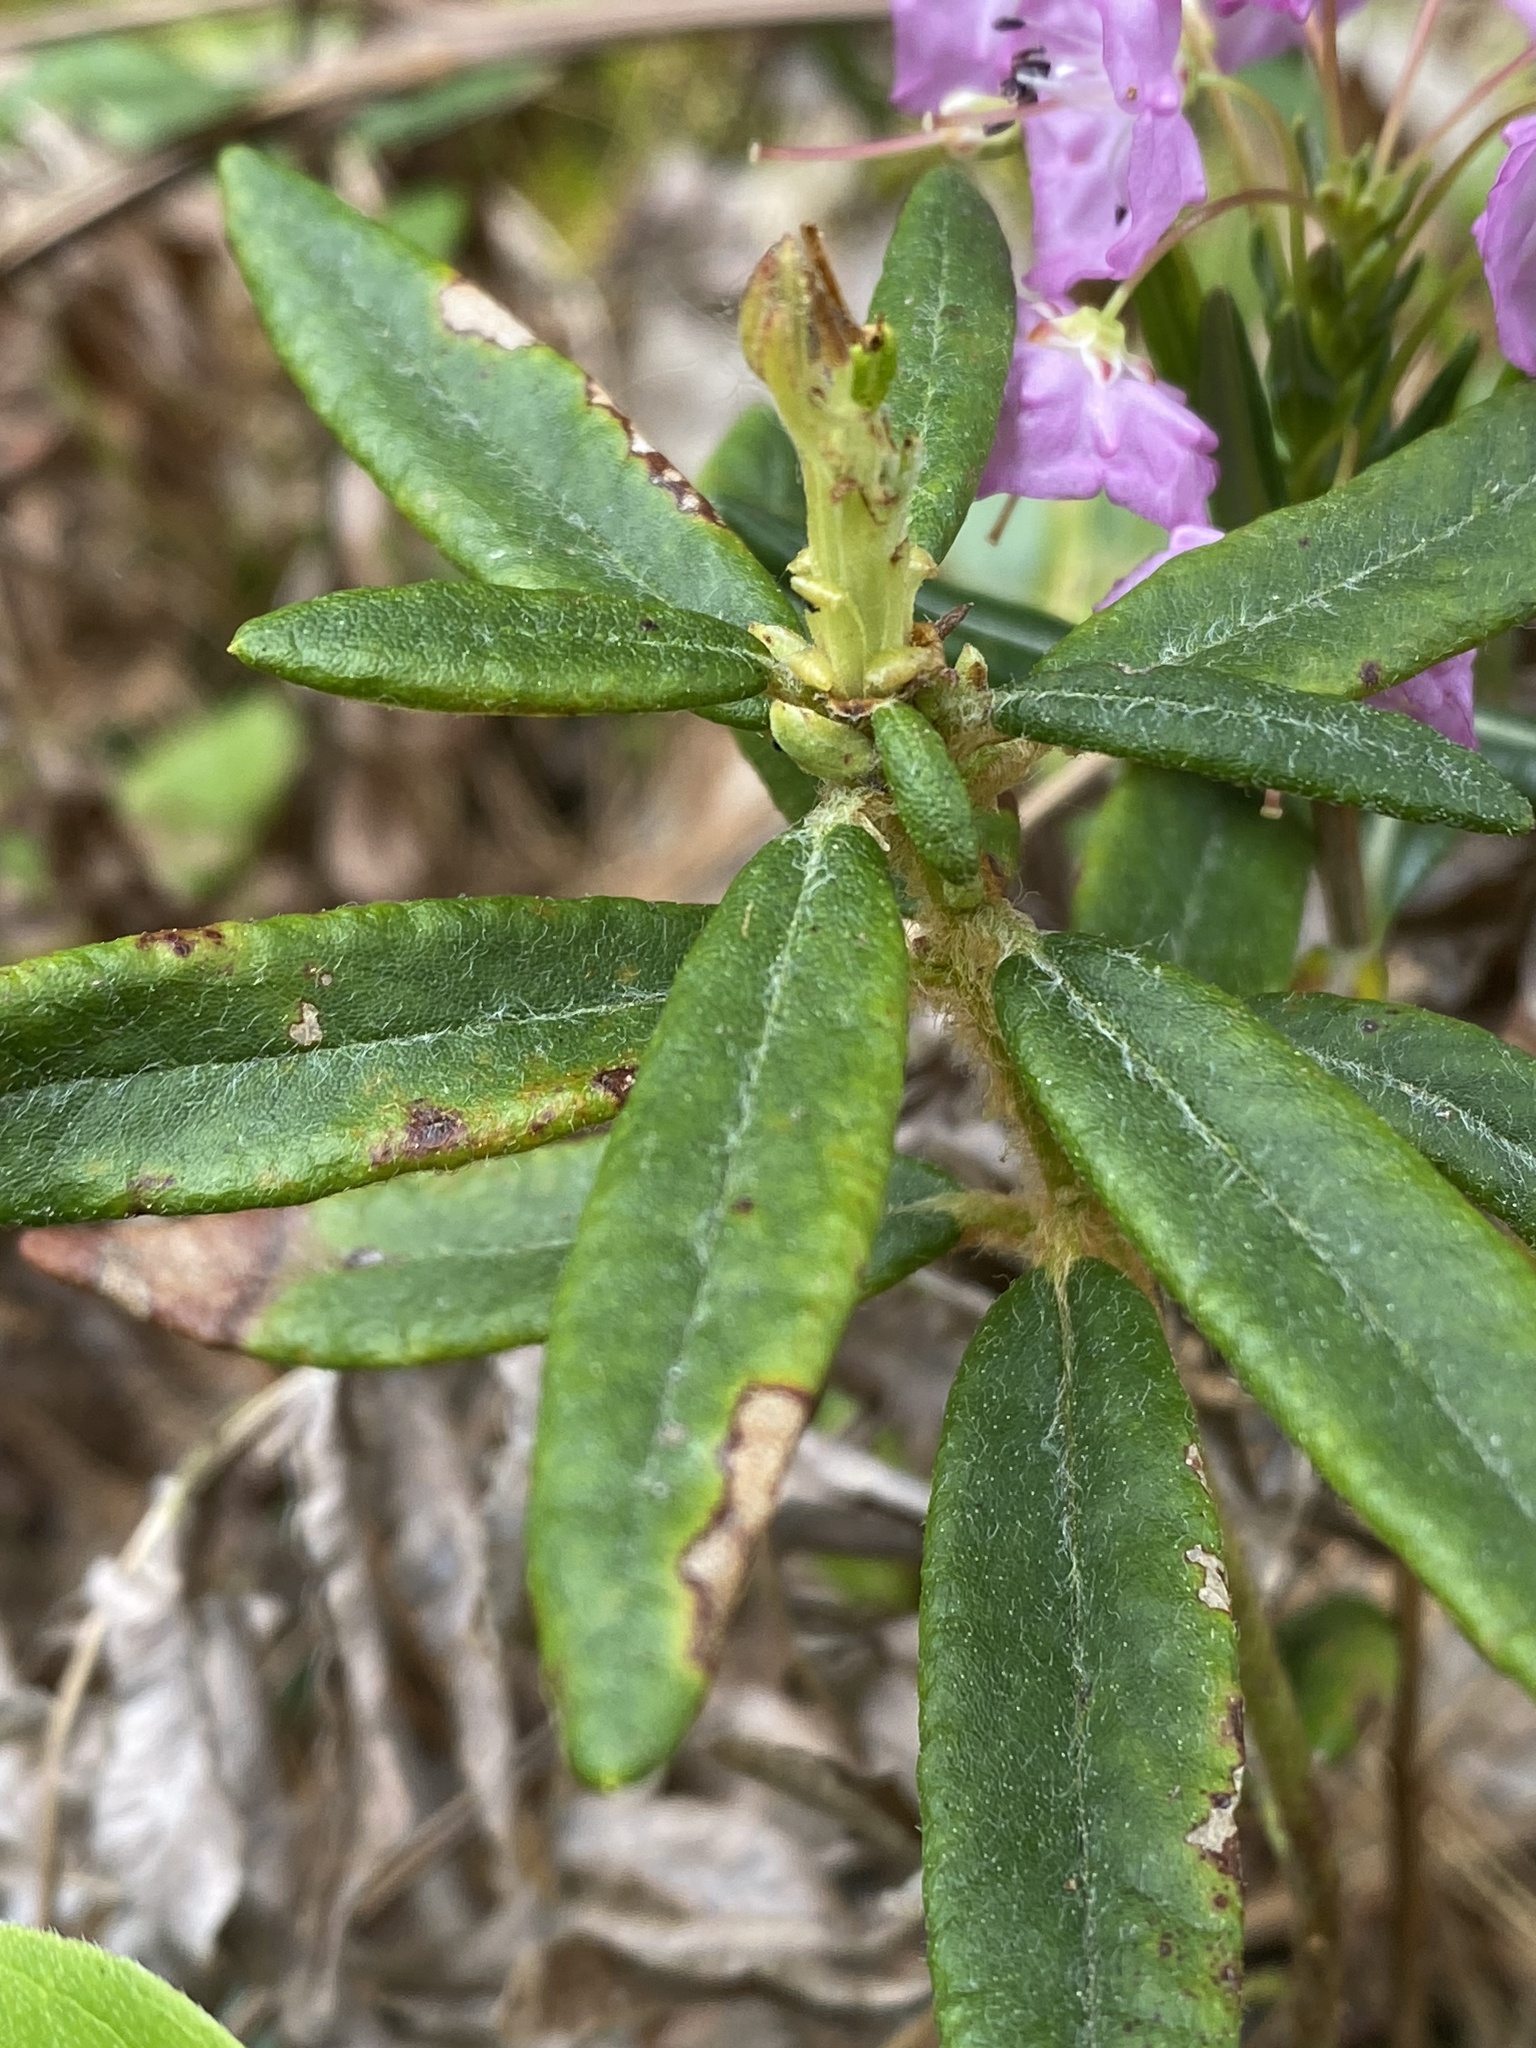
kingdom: Plantae
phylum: Tracheophyta
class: Magnoliopsida
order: Ericales
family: Ericaceae
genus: Kalmia
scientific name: Kalmia polifolia
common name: Bog-laurel
